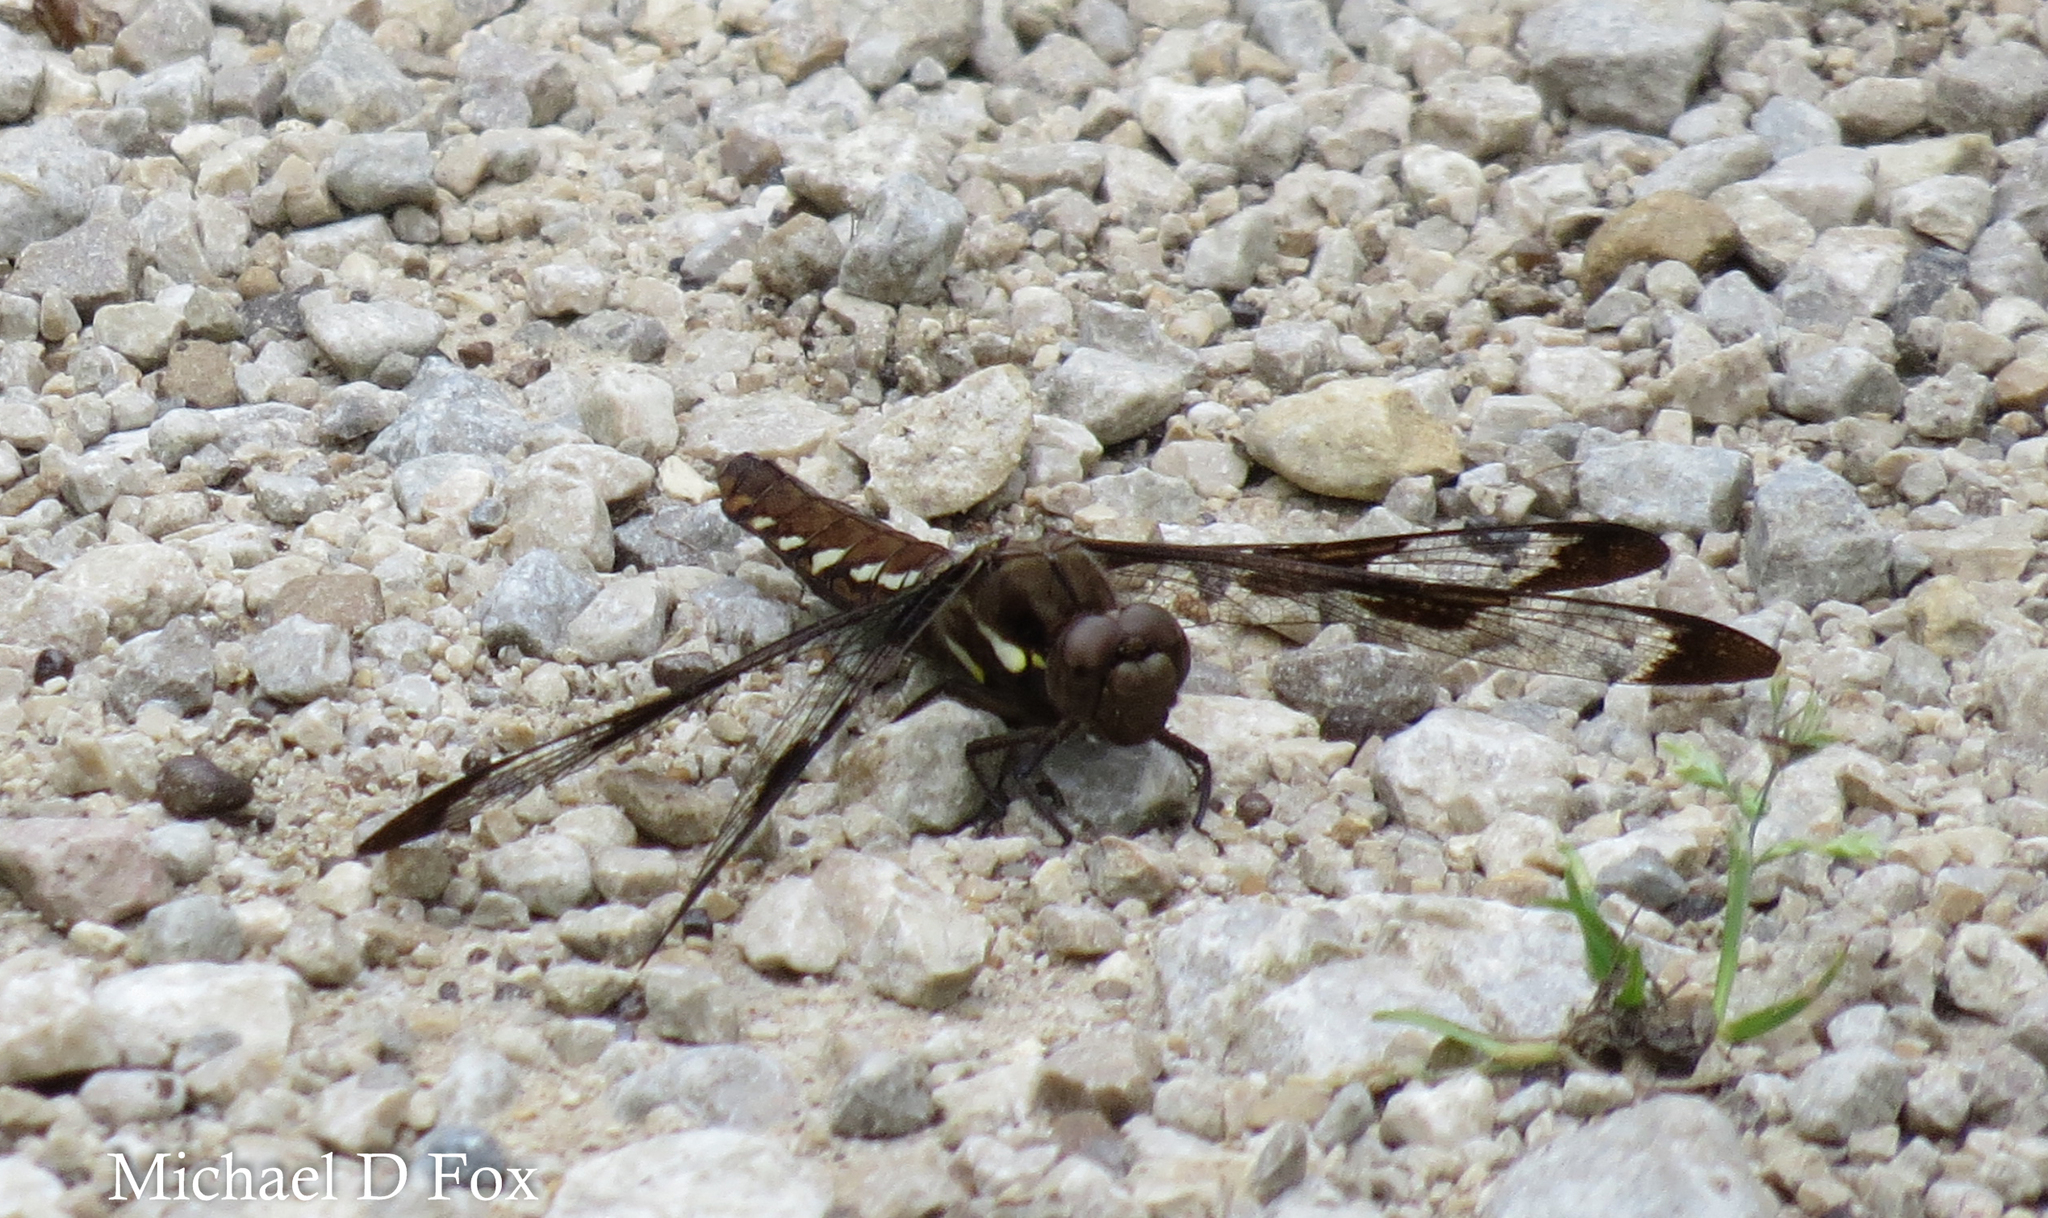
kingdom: Animalia
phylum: Arthropoda
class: Insecta
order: Odonata
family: Libellulidae
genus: Plathemis
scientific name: Plathemis lydia
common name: Common whitetail
